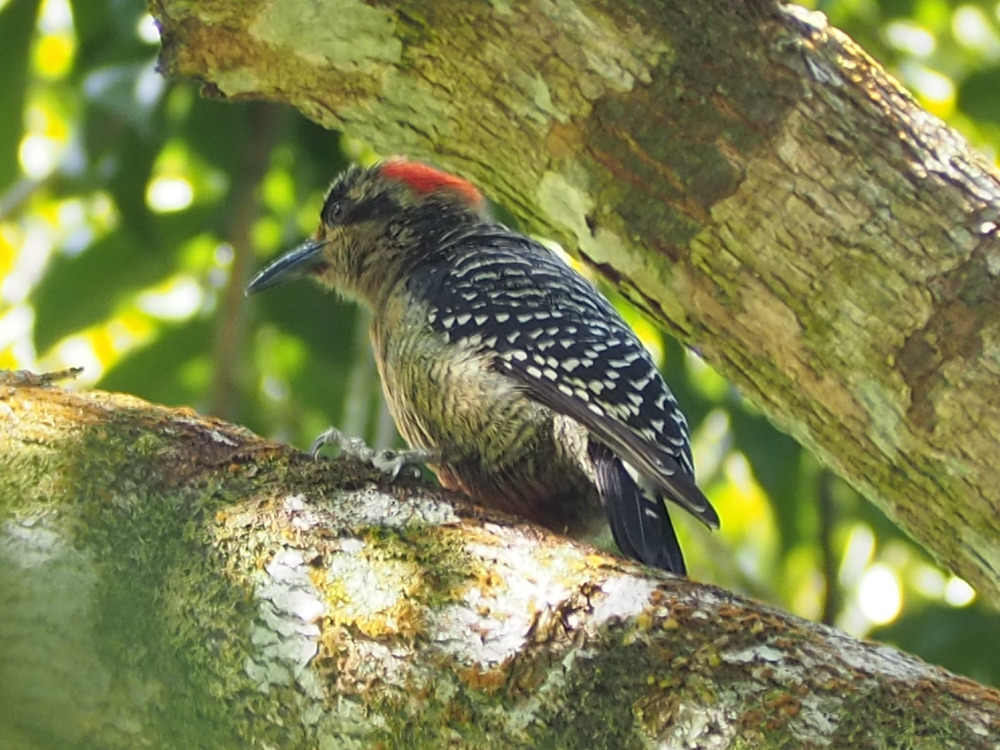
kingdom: Animalia
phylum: Chordata
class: Aves
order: Piciformes
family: Picidae
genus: Melanerpes
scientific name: Melanerpes pucherani
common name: Black-cheeked woodpecker
